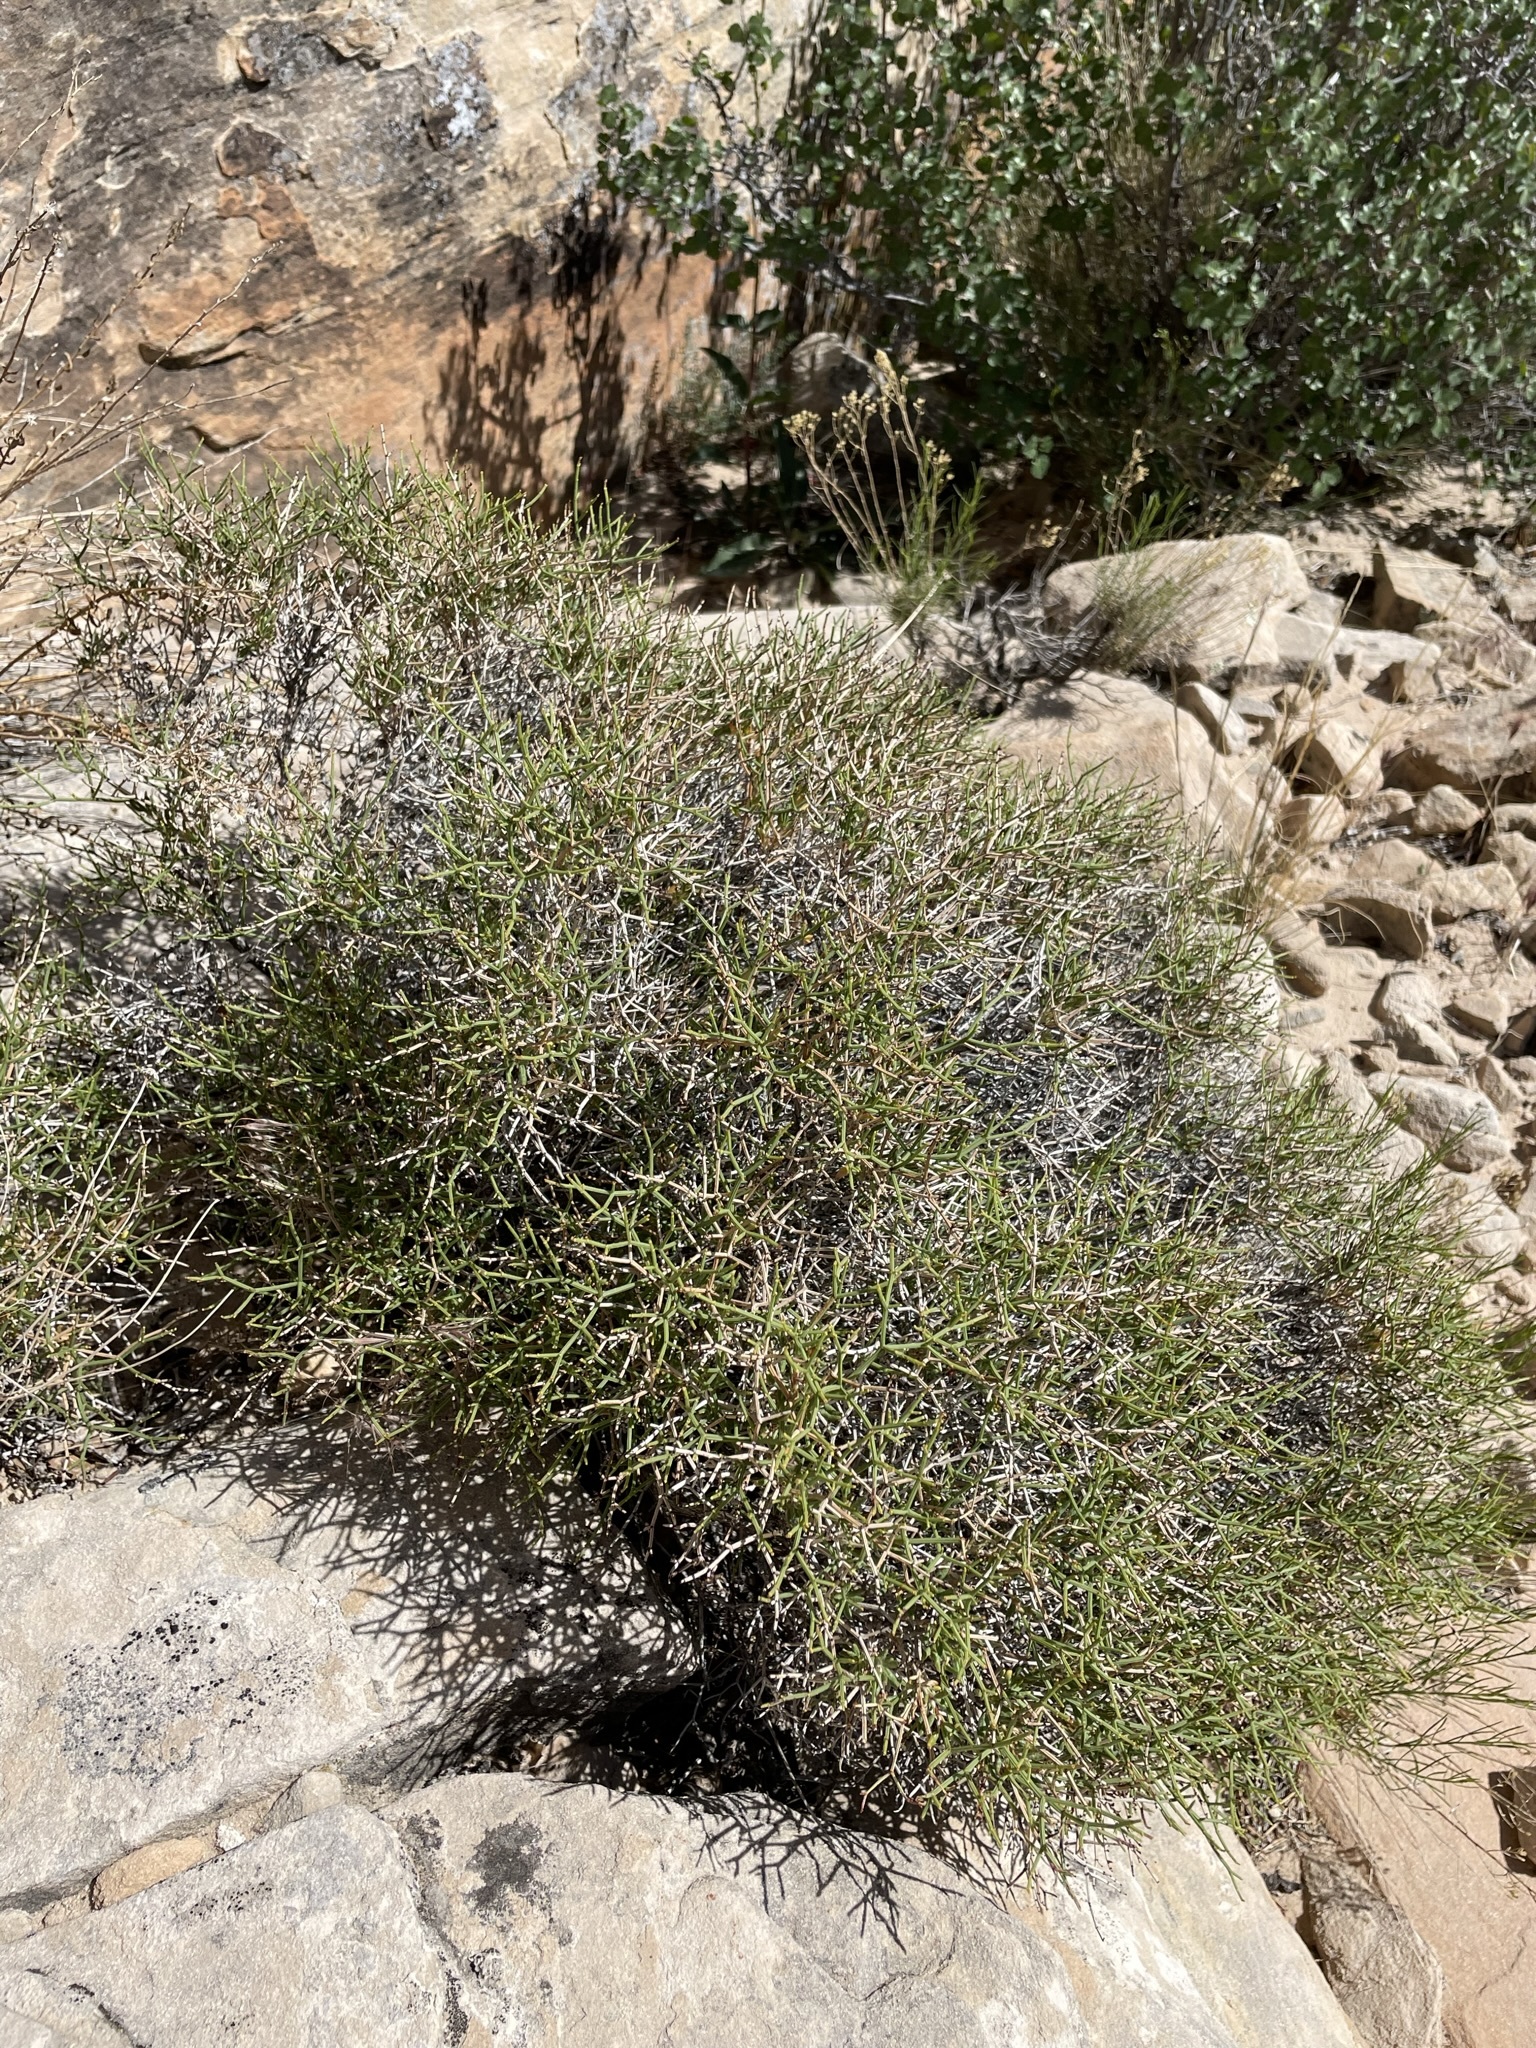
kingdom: Plantae
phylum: Tracheophyta
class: Magnoliopsida
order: Caryophyllales
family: Polygonaceae
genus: Eriogonum
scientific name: Eriogonum heermannii
